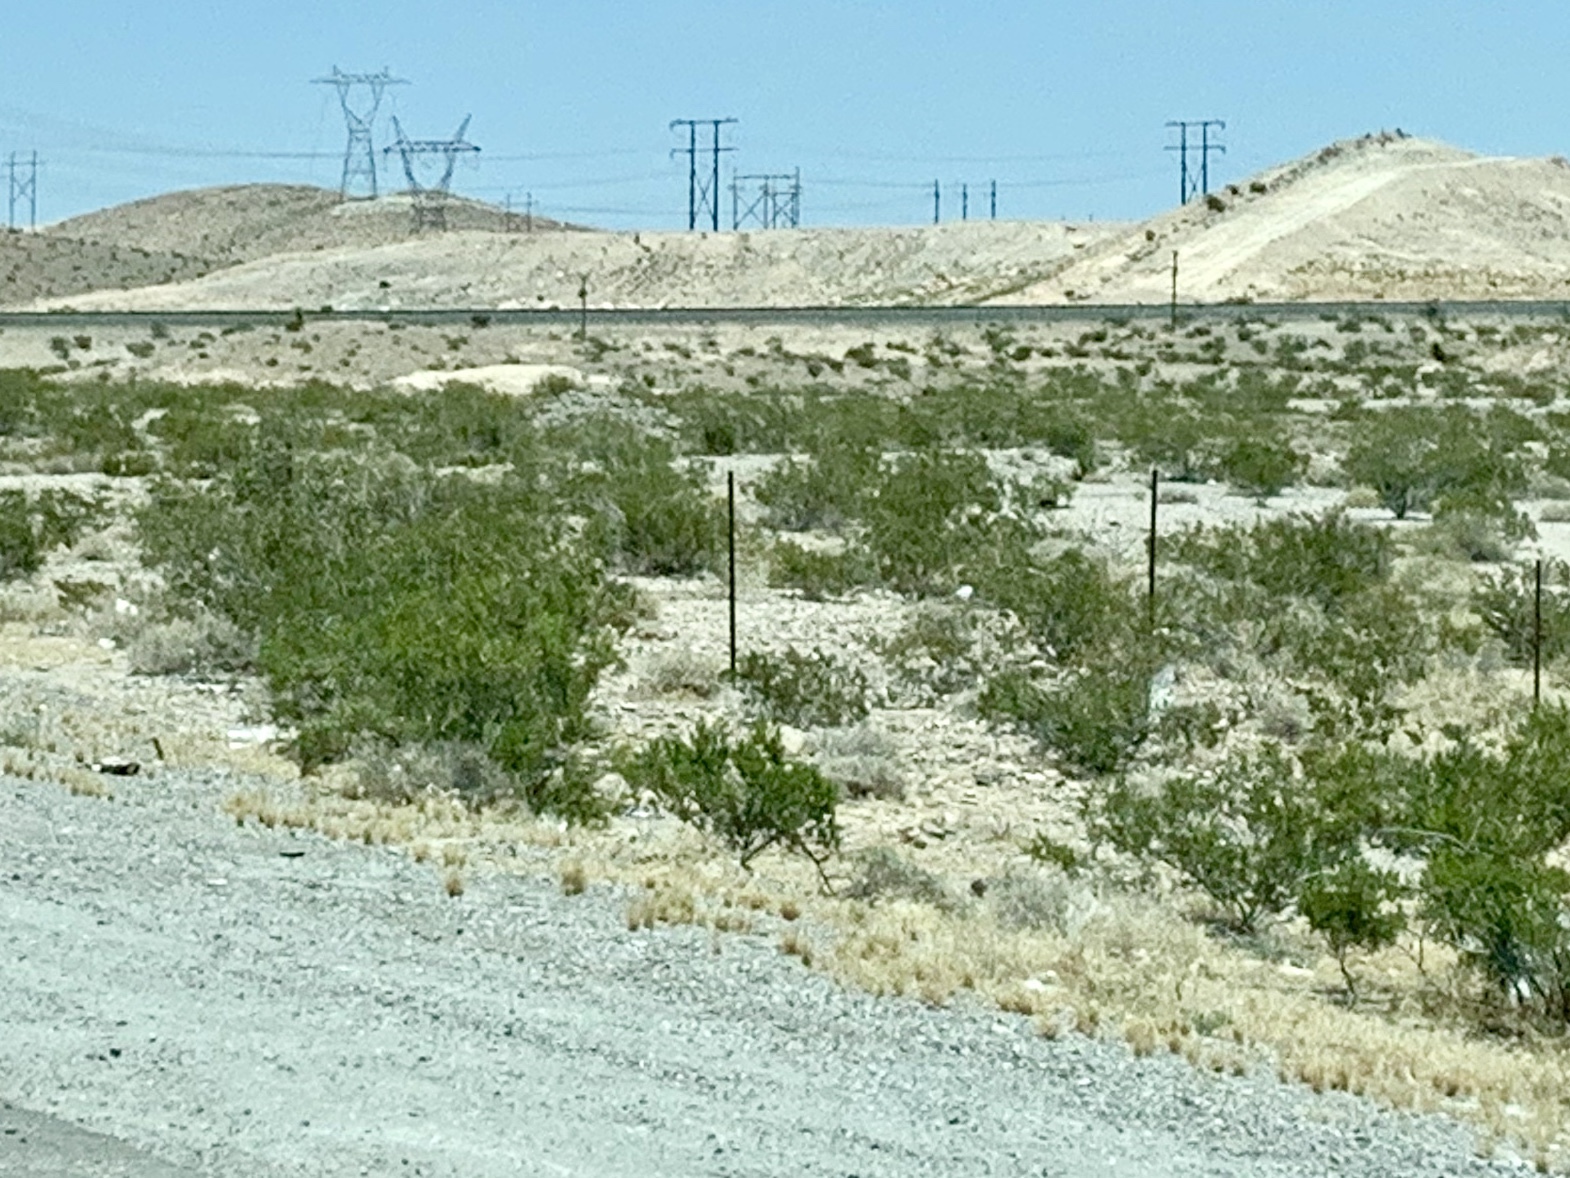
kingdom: Plantae
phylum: Tracheophyta
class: Magnoliopsida
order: Zygophyllales
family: Zygophyllaceae
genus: Larrea
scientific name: Larrea tridentata
